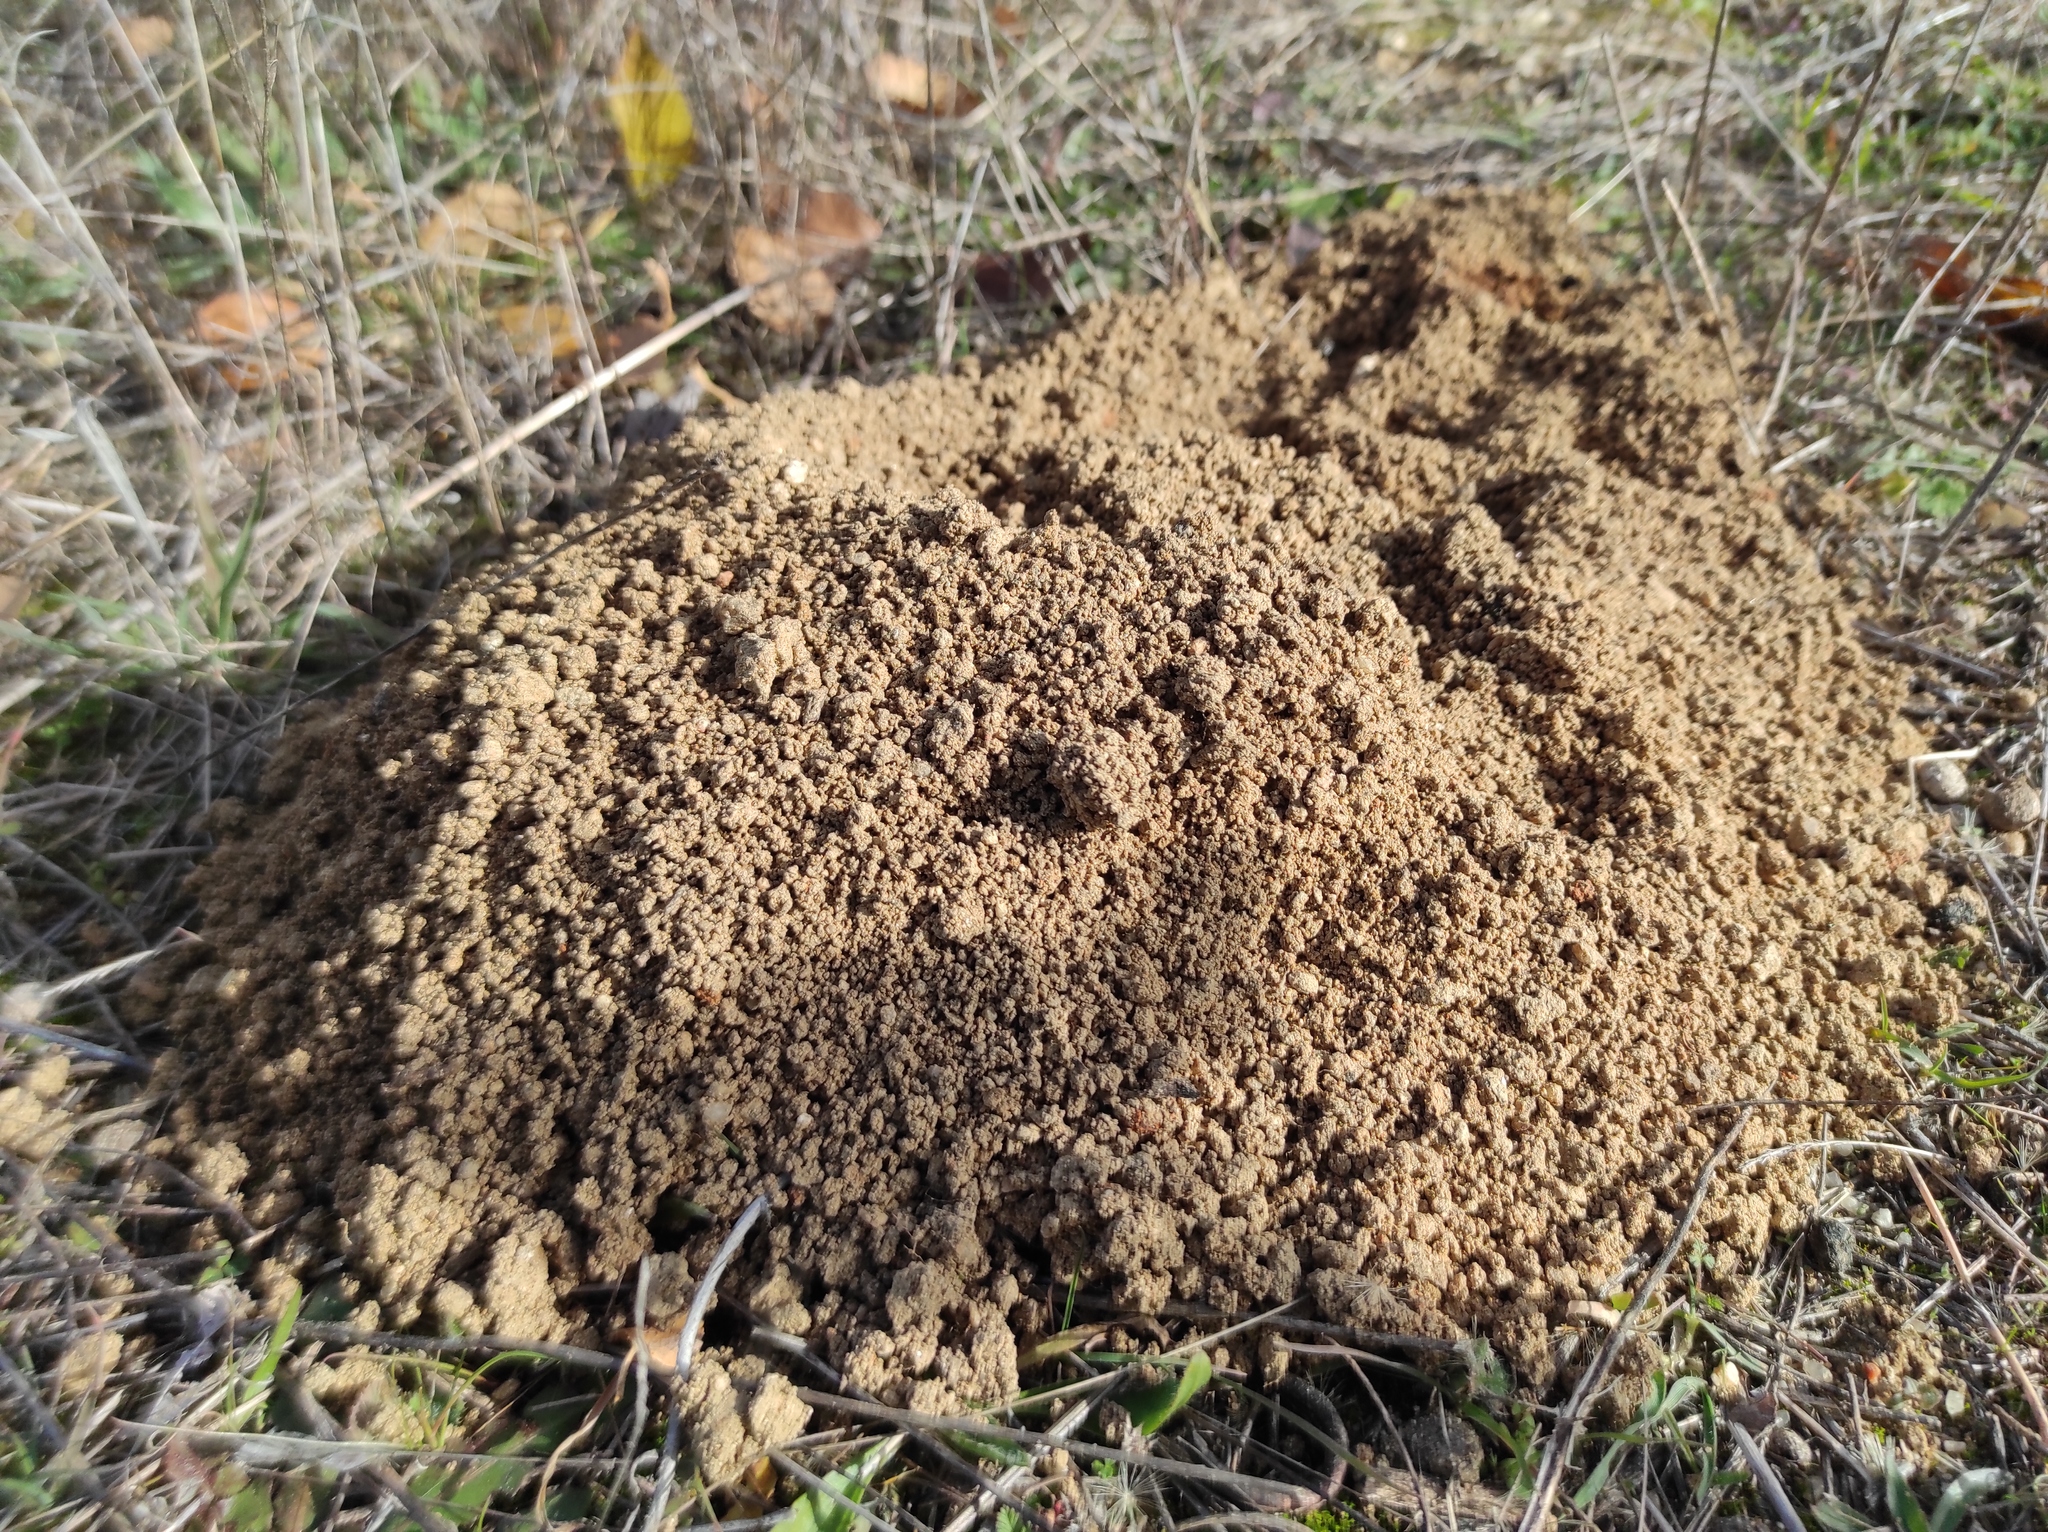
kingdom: Animalia
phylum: Chordata
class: Mammalia
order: Rodentia
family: Cricetidae
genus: Microtus
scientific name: Microtus duodecimcostatus
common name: Mediterranean pine vole
